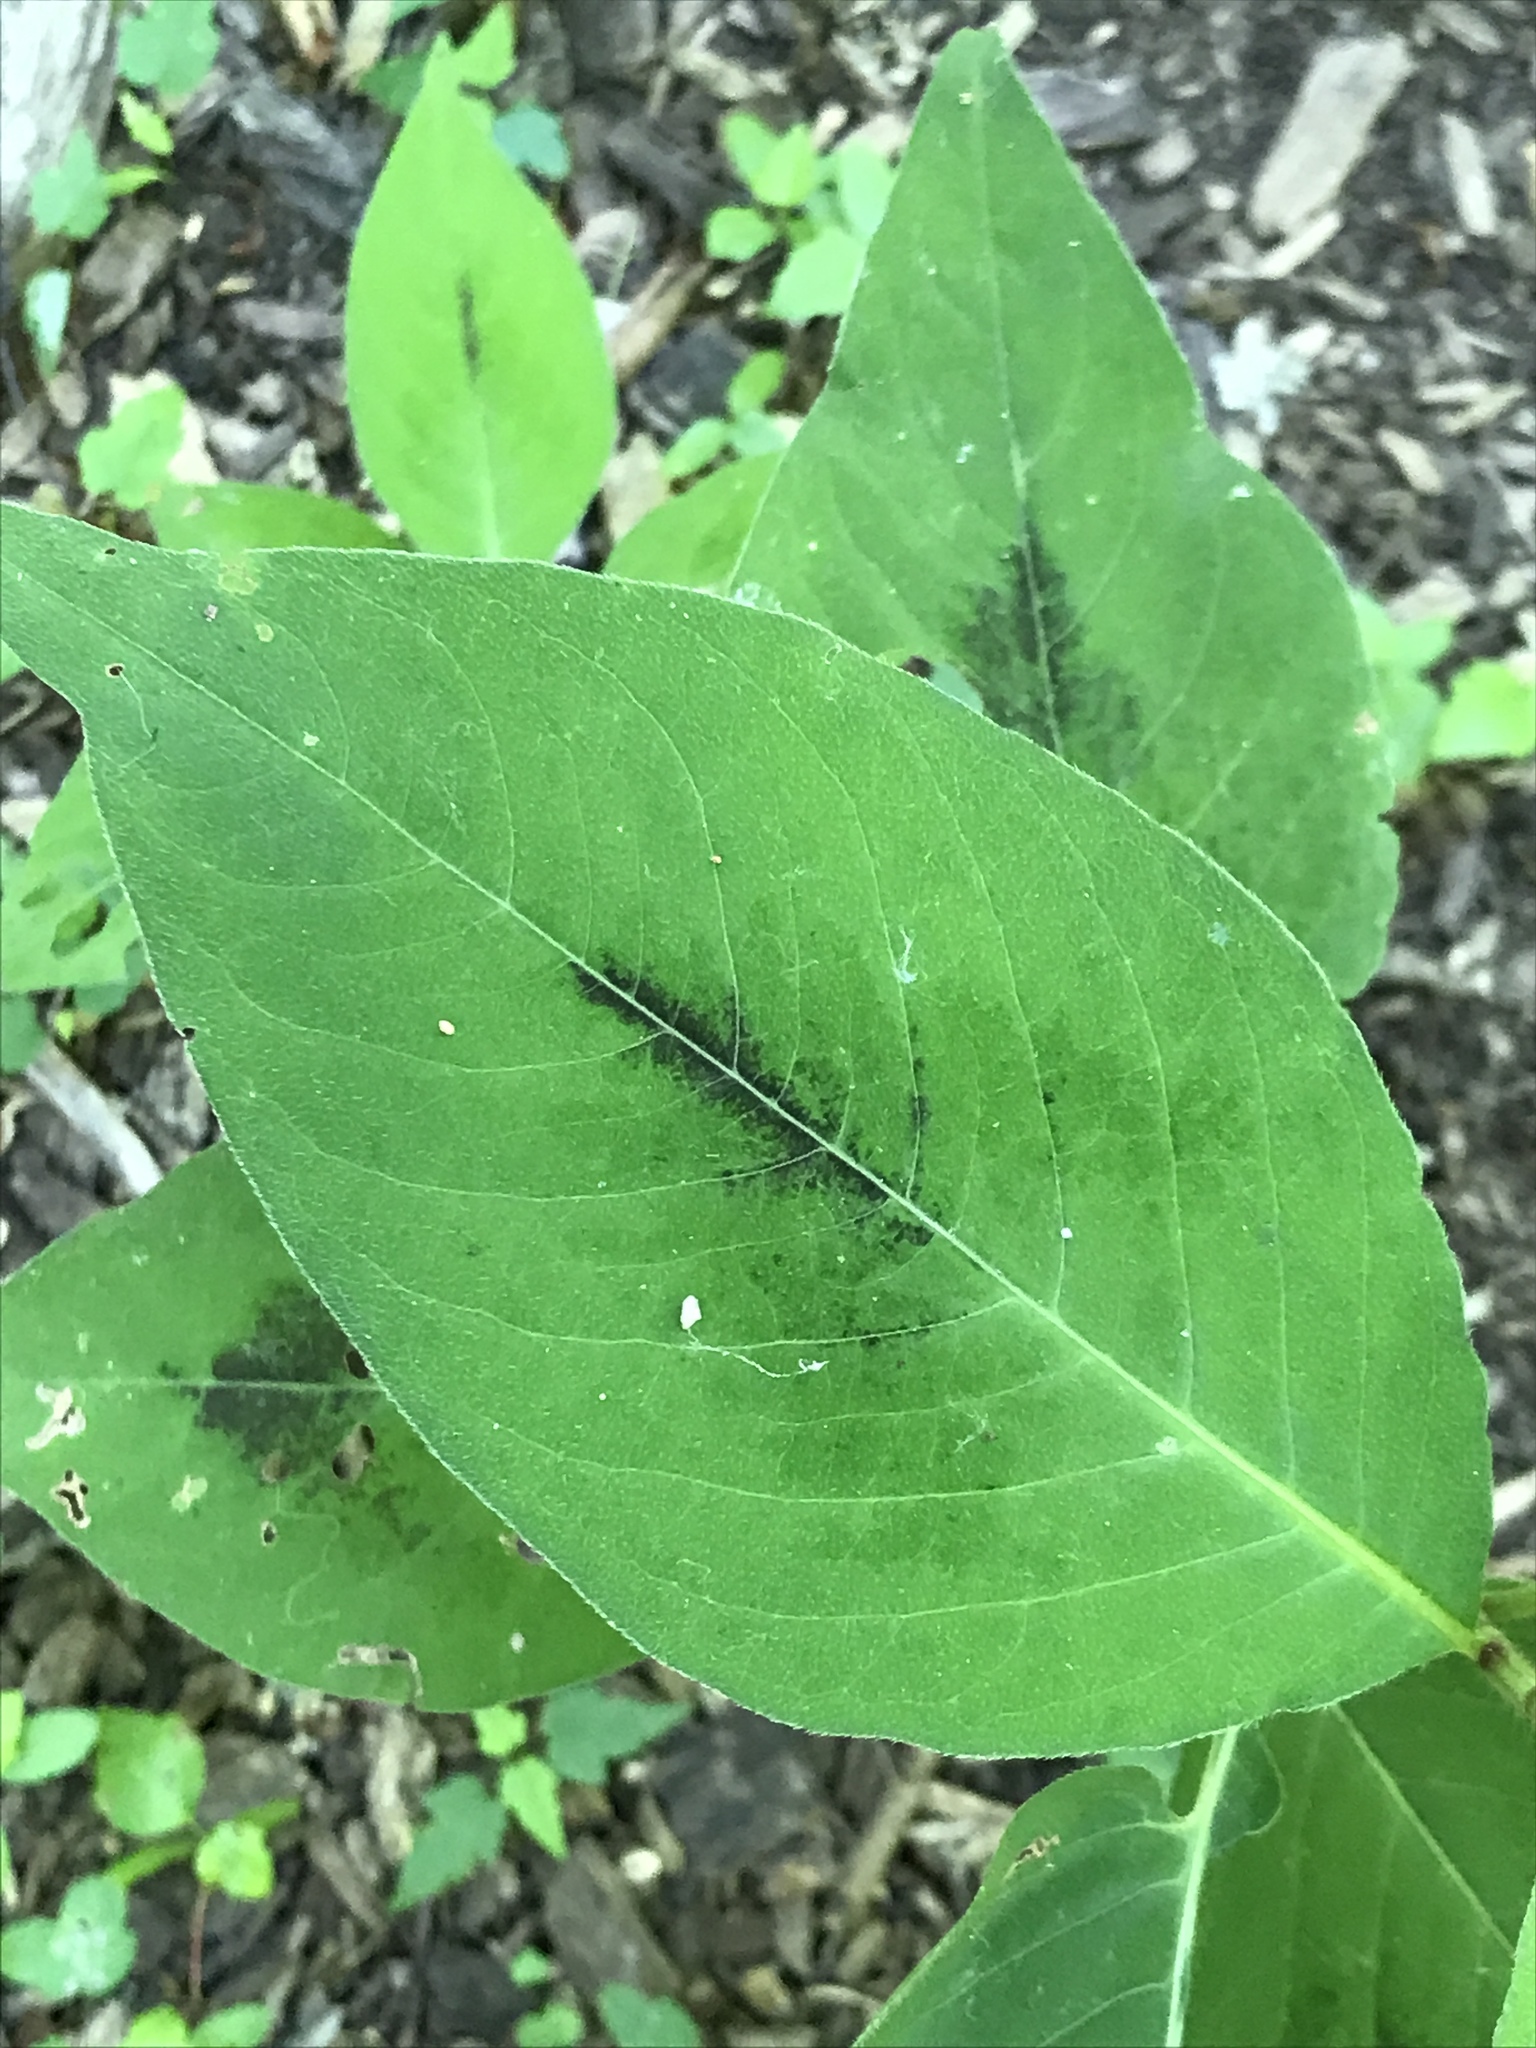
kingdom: Plantae
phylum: Tracheophyta
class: Magnoliopsida
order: Caryophyllales
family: Polygonaceae
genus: Persicaria
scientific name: Persicaria virginiana
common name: Jumpseed
